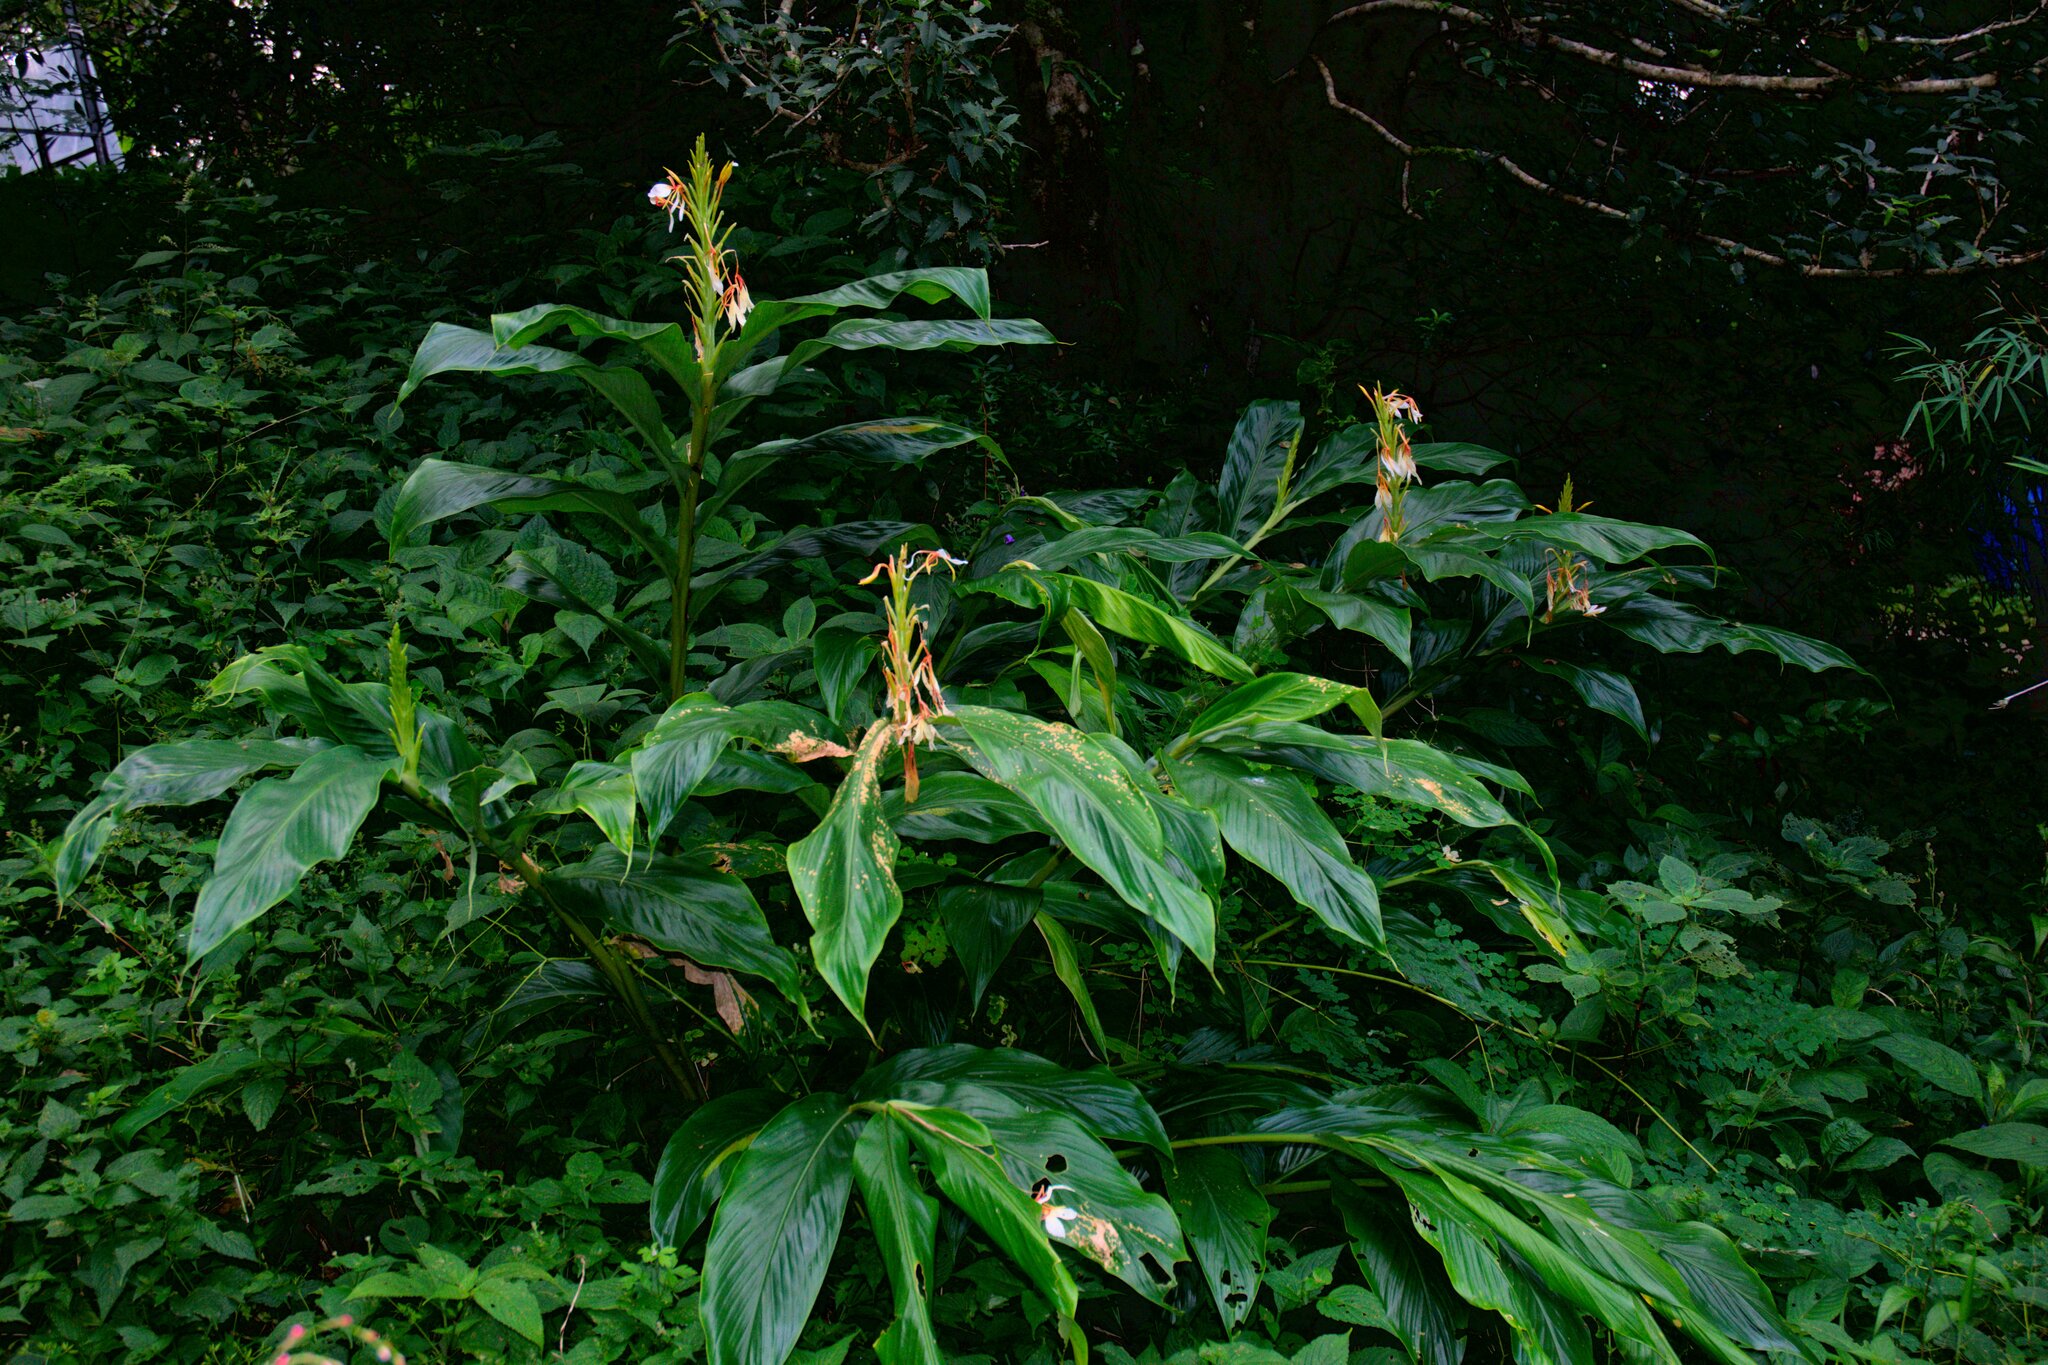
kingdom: Plantae
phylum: Tracheophyta
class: Liliopsida
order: Zingiberales
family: Zingiberaceae
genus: Hedychium
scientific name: Hedychium spicatum
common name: Spiked ginger-lily
